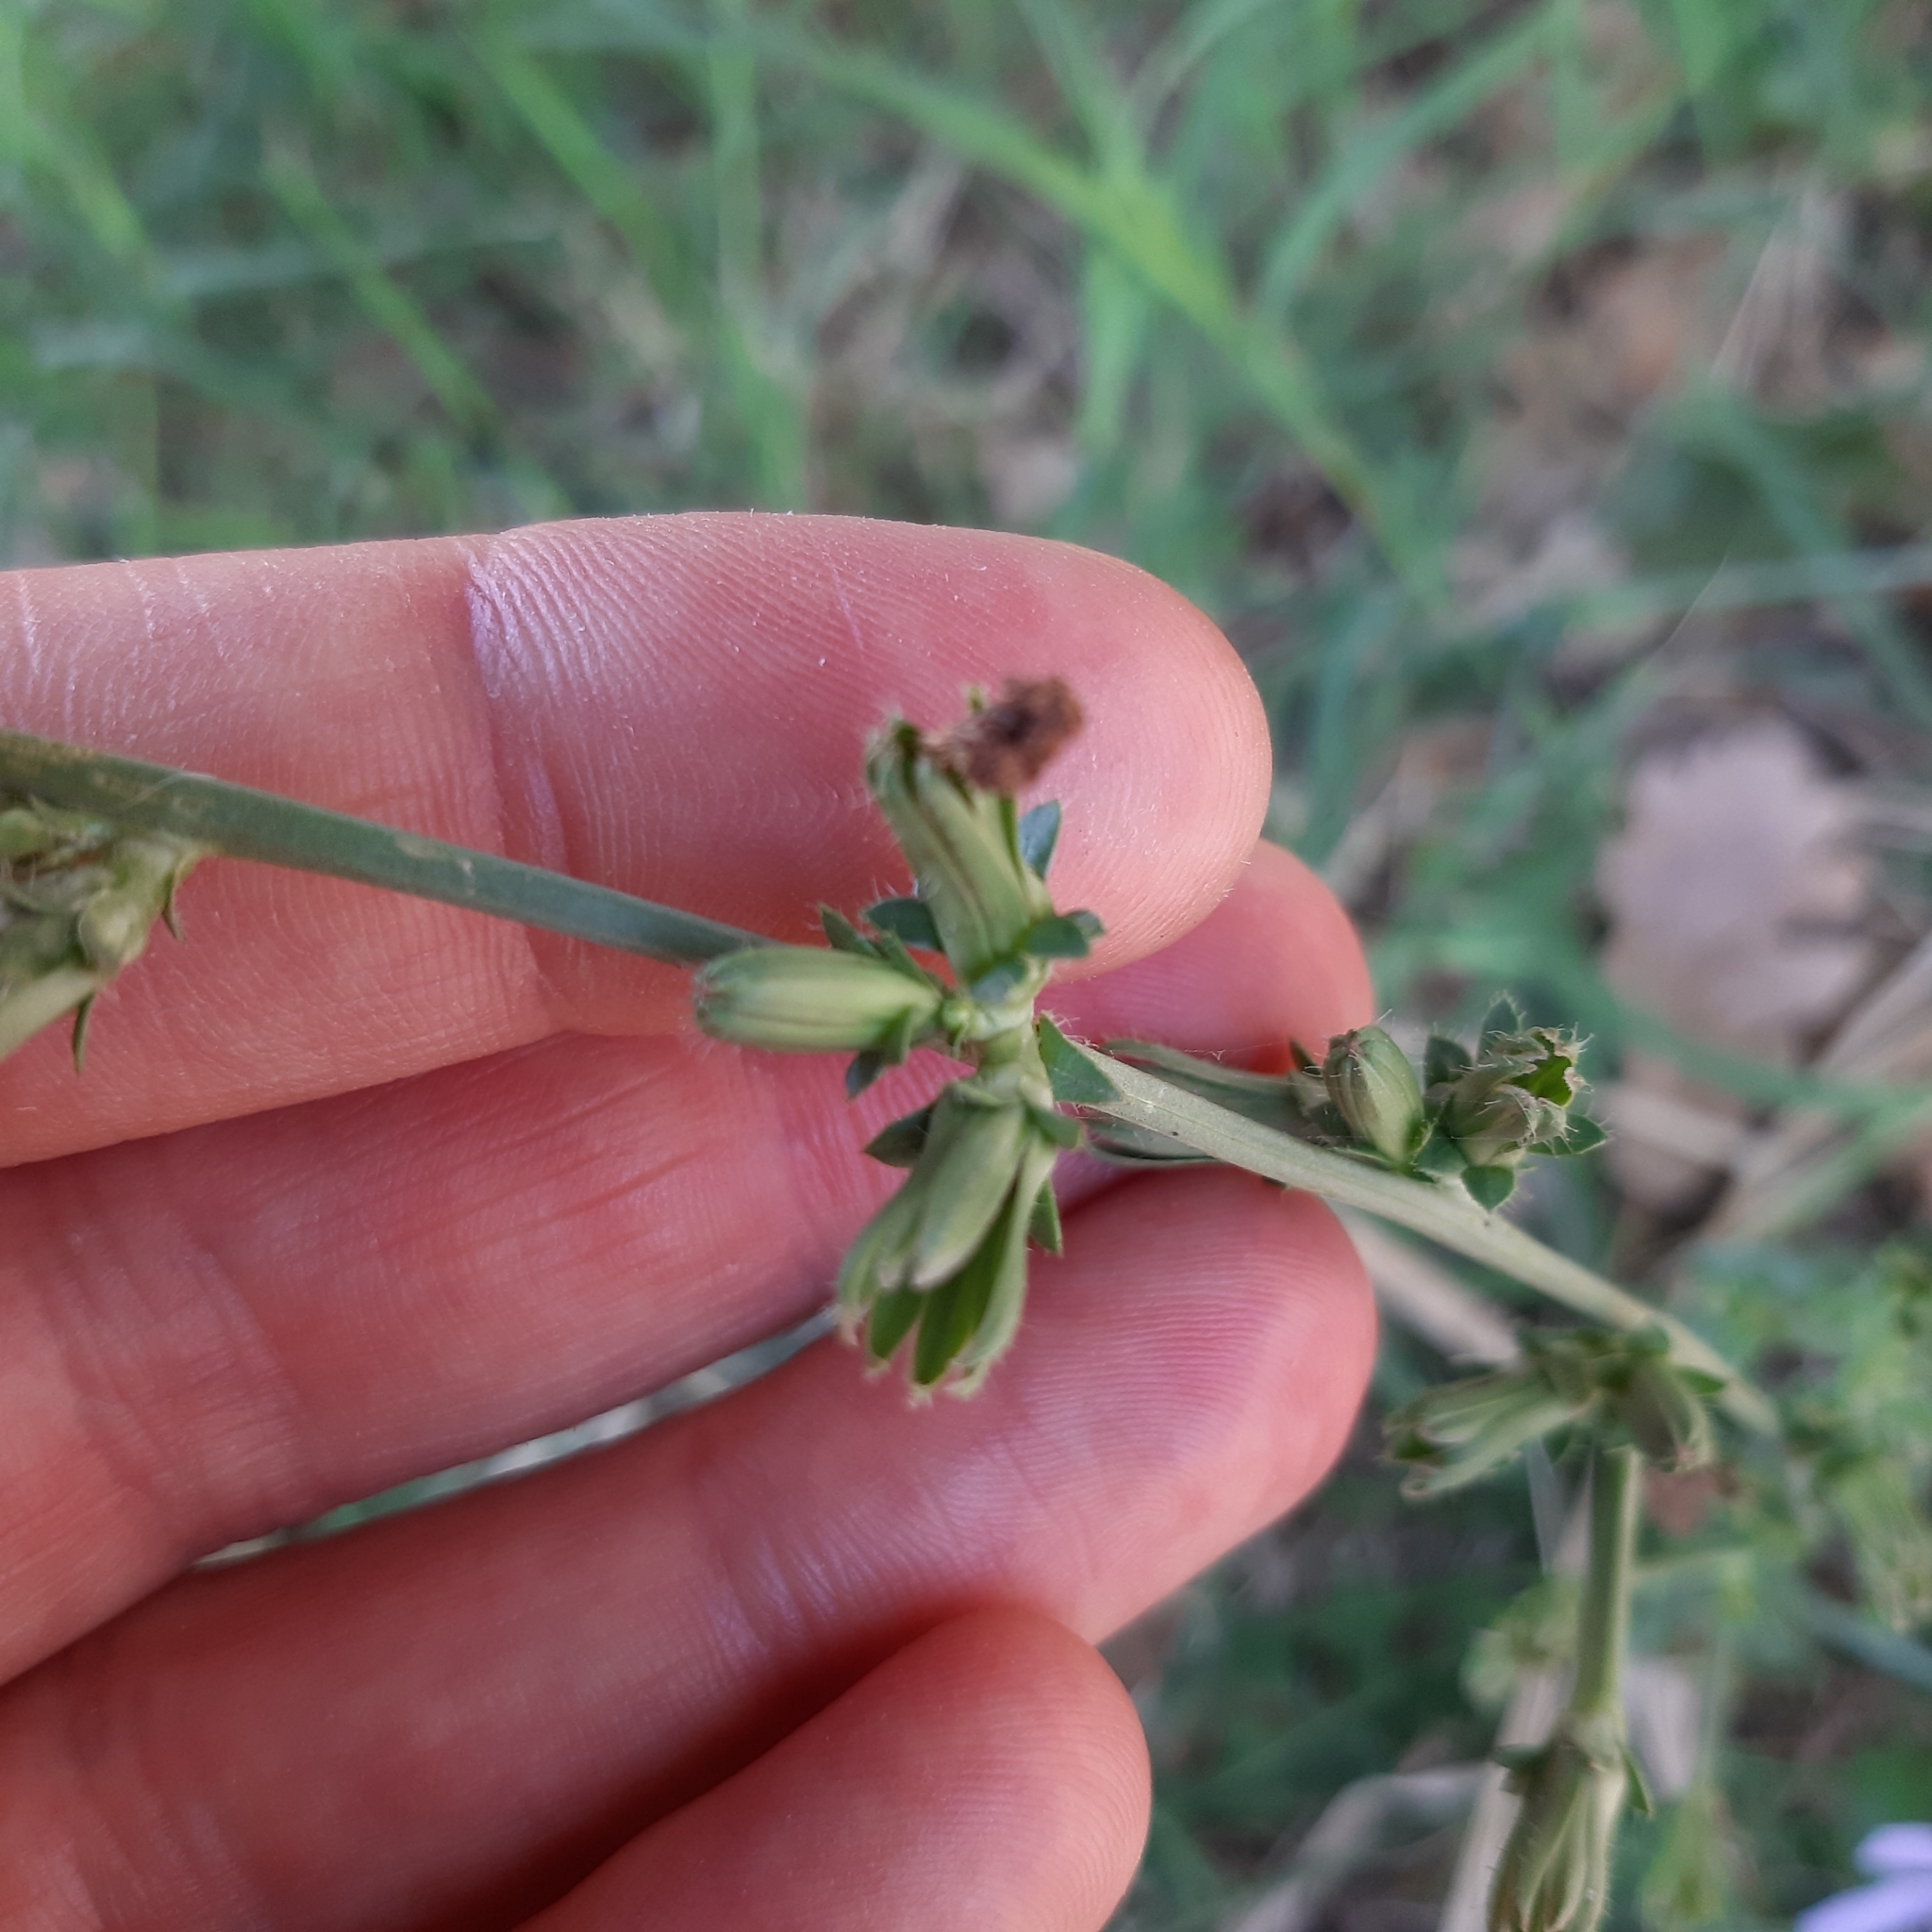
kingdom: Plantae
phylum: Tracheophyta
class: Magnoliopsida
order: Asterales
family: Asteraceae
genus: Cichorium
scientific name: Cichorium intybus
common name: Chicory
